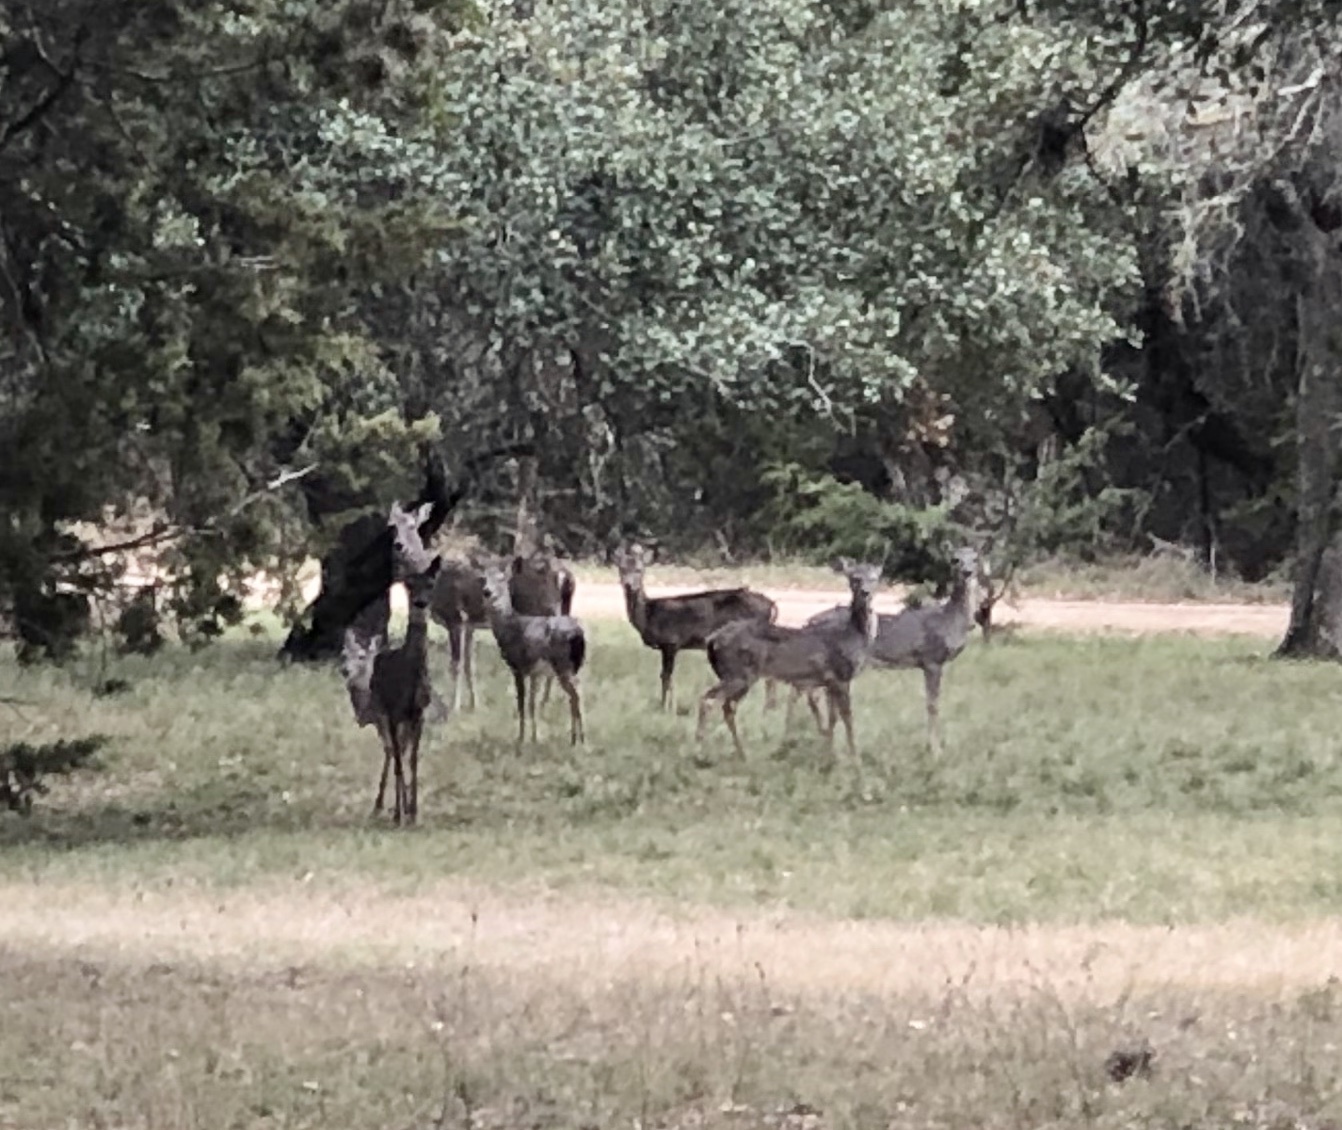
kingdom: Animalia
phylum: Chordata
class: Mammalia
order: Artiodactyla
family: Cervidae
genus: Odocoileus
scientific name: Odocoileus virginianus
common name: White-tailed deer
